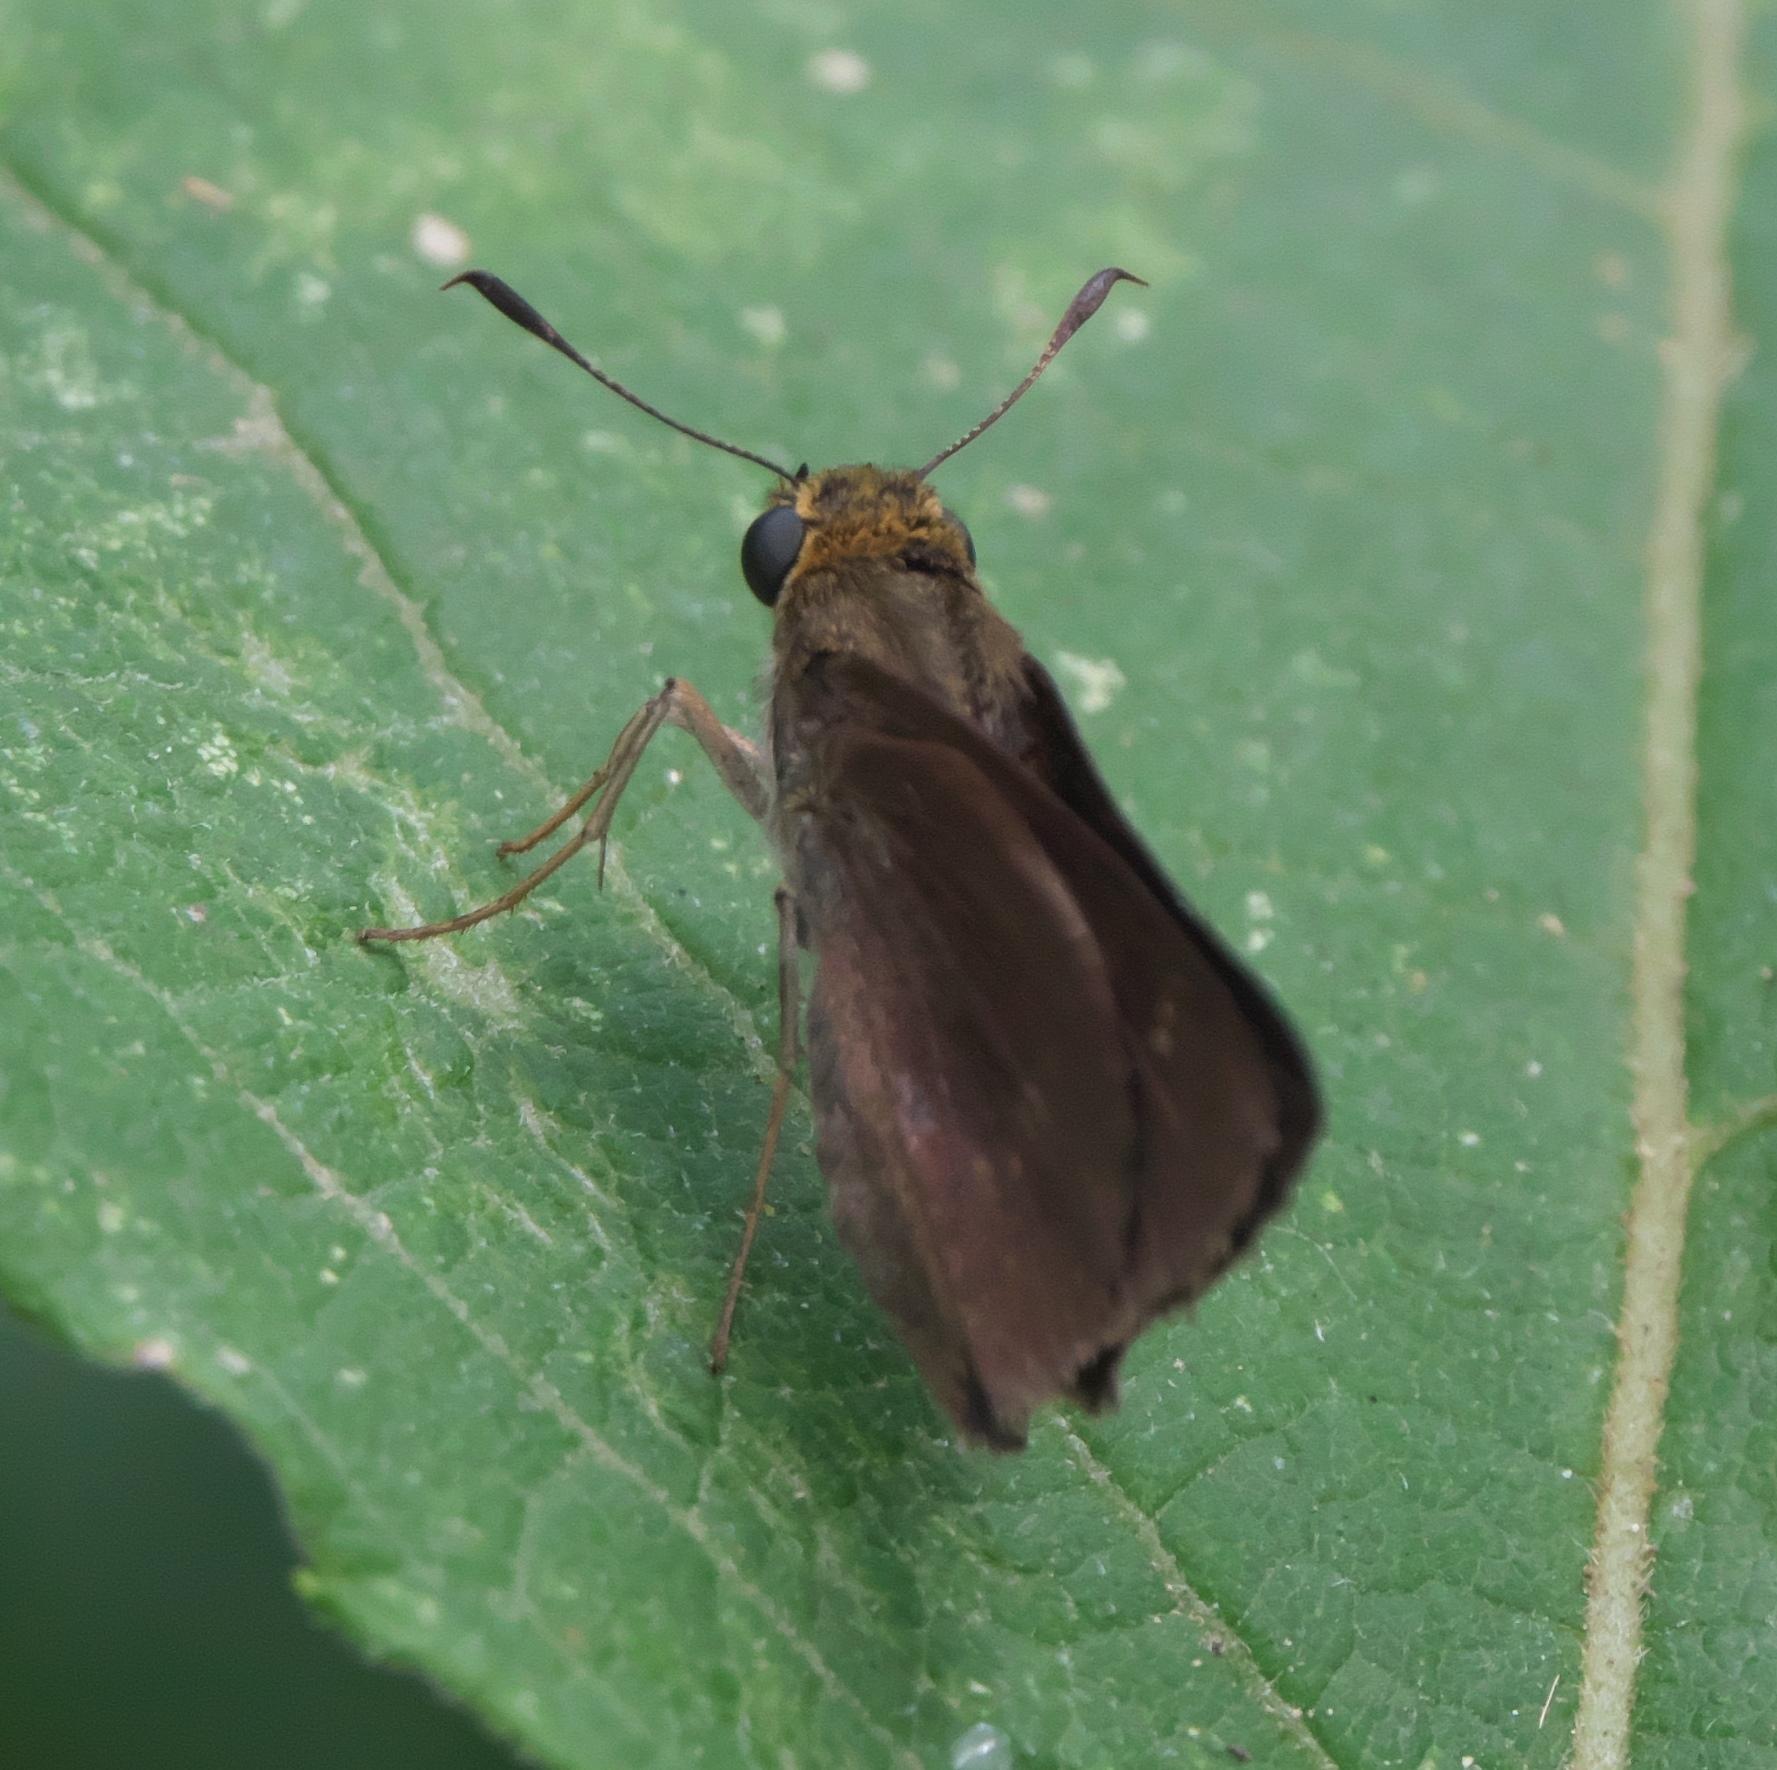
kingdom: Animalia
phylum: Arthropoda
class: Insecta
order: Lepidoptera
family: Hesperiidae
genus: Euphyes
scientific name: Euphyes vestris
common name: Dun skipper
